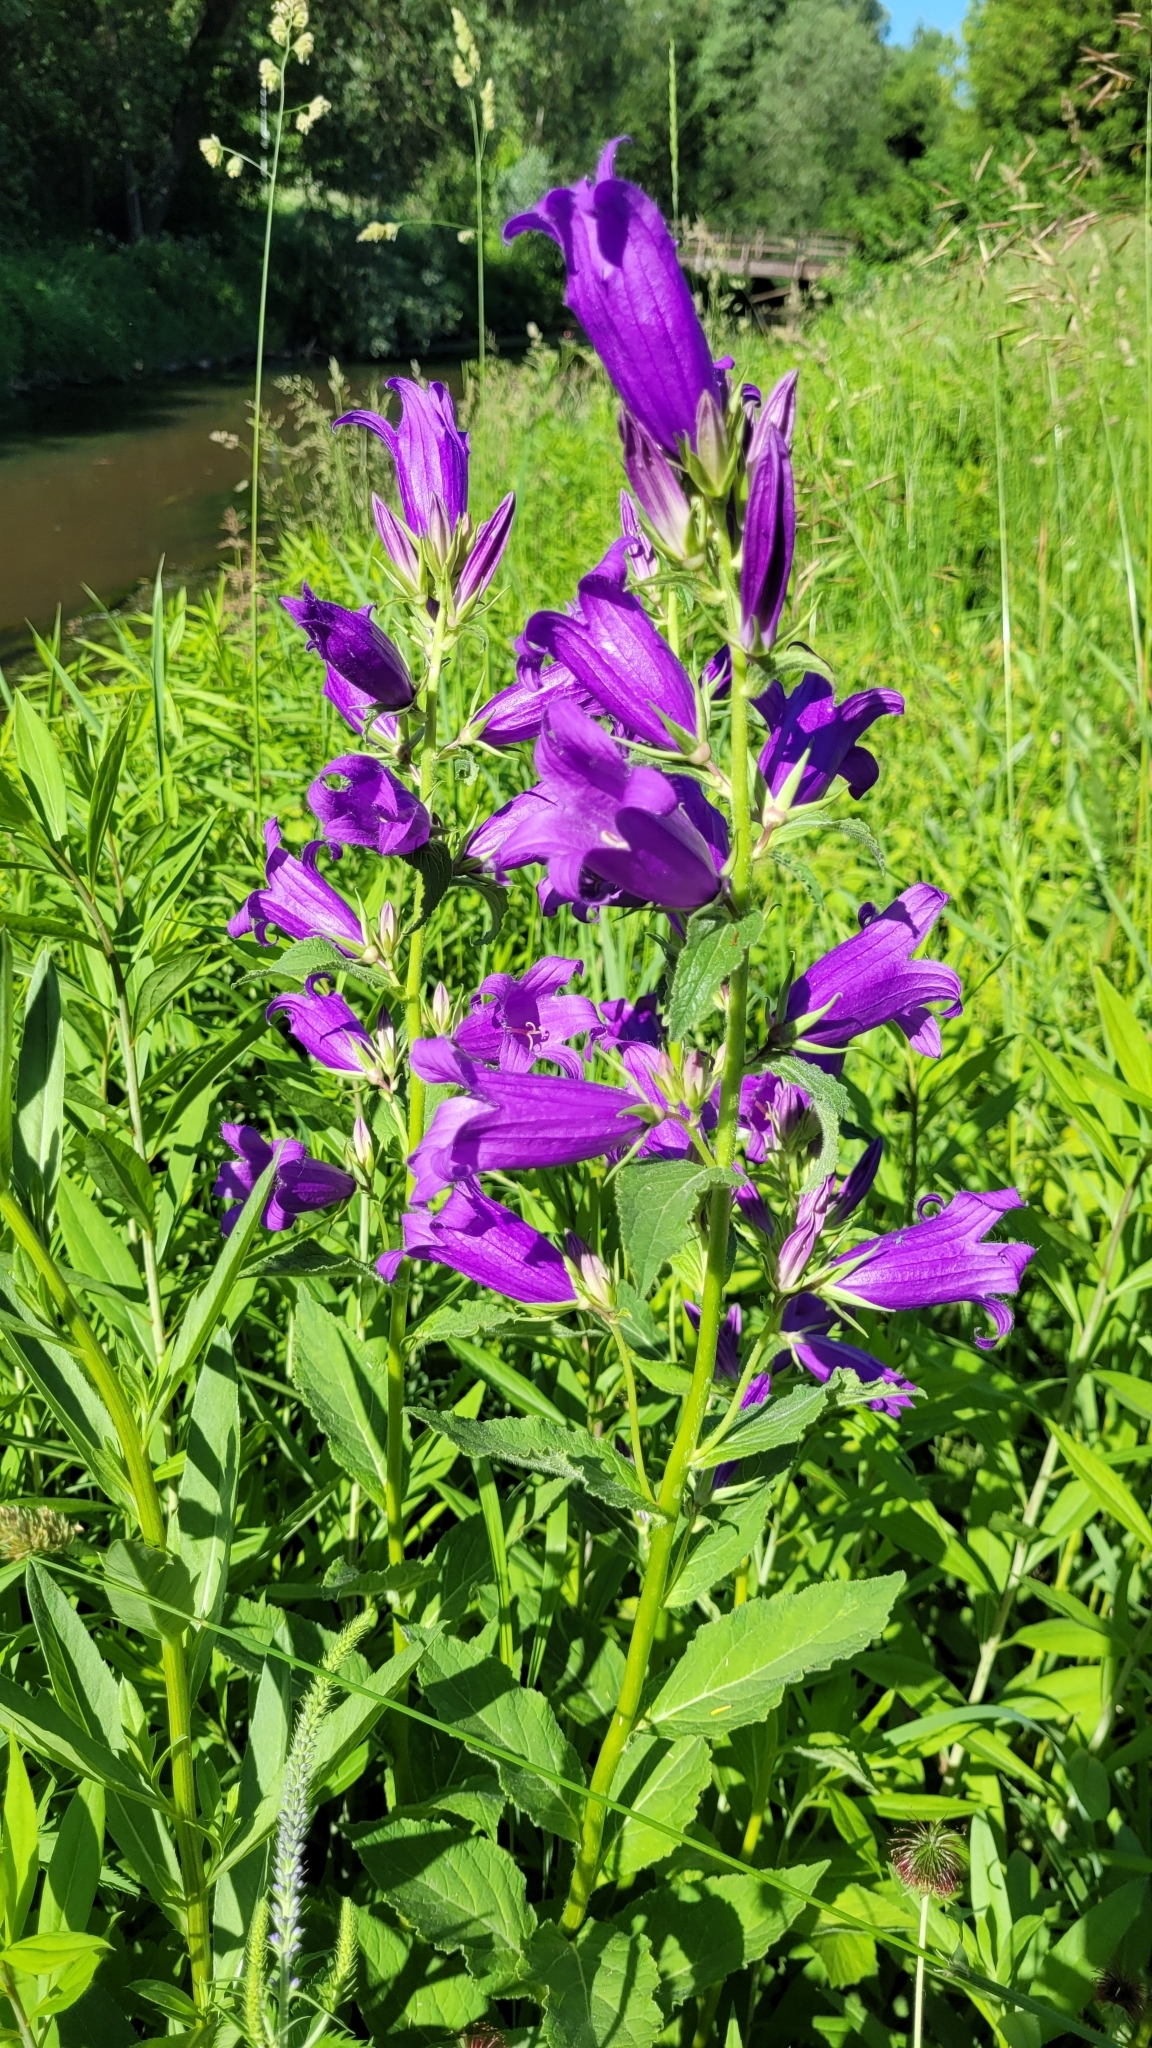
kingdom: Plantae
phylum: Tracheophyta
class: Magnoliopsida
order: Asterales
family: Campanulaceae
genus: Campanula
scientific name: Campanula latifolia
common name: Giant bellflower
